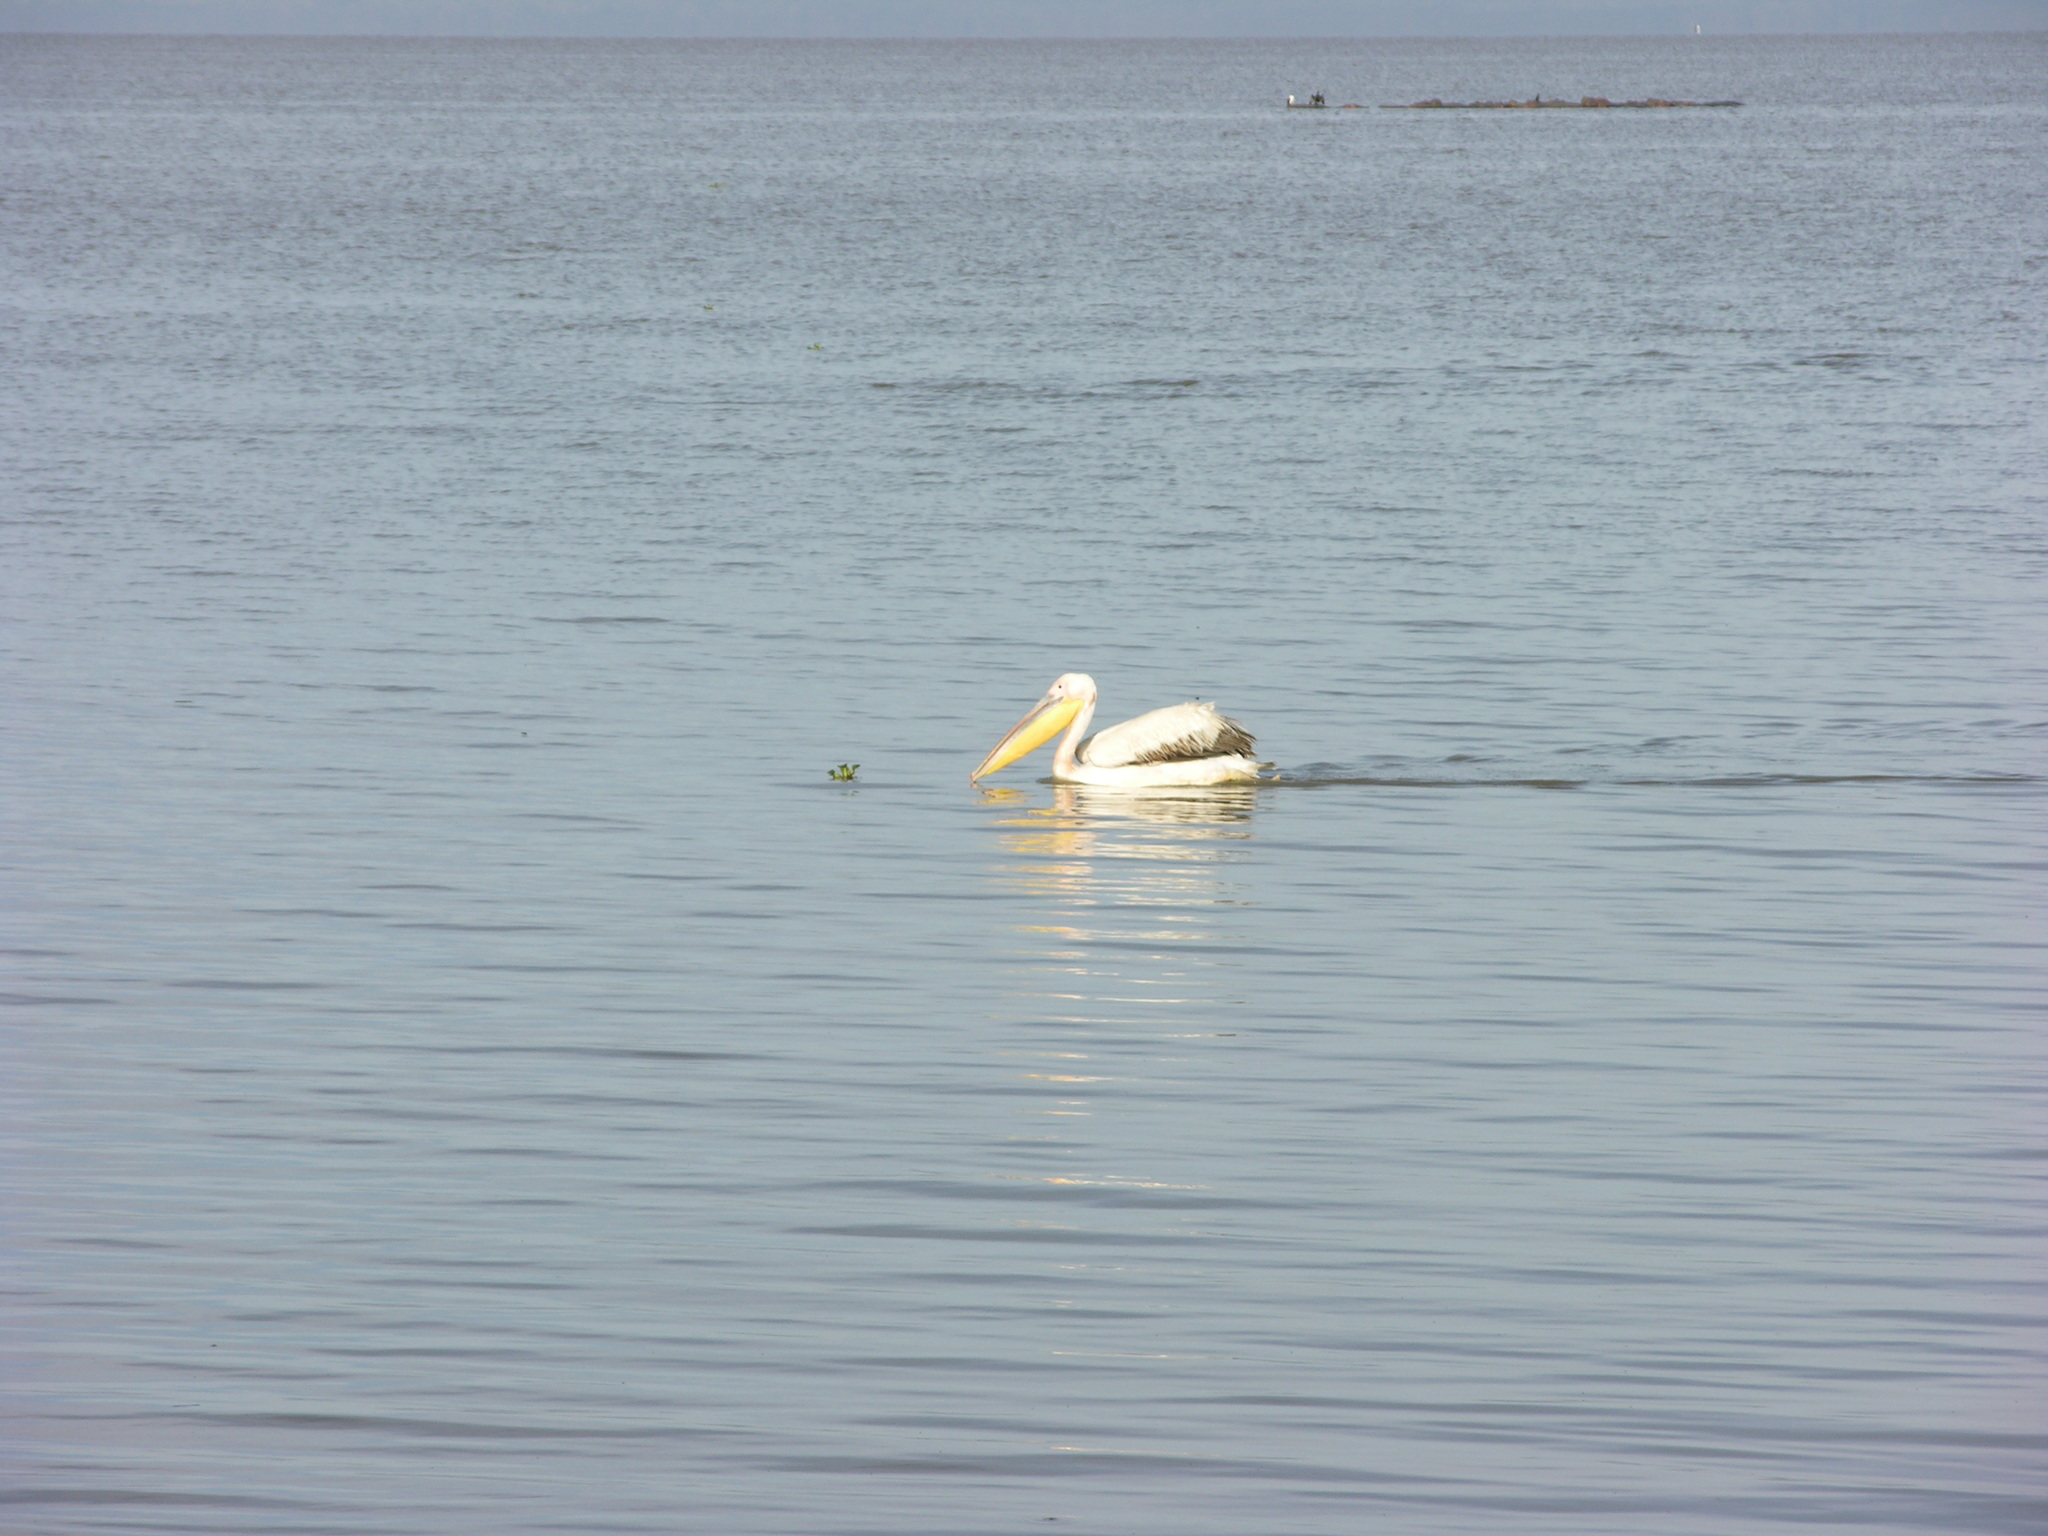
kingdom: Animalia
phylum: Chordata
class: Aves
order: Pelecaniformes
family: Pelecanidae
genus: Pelecanus
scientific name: Pelecanus onocrotalus
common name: Great white pelican
